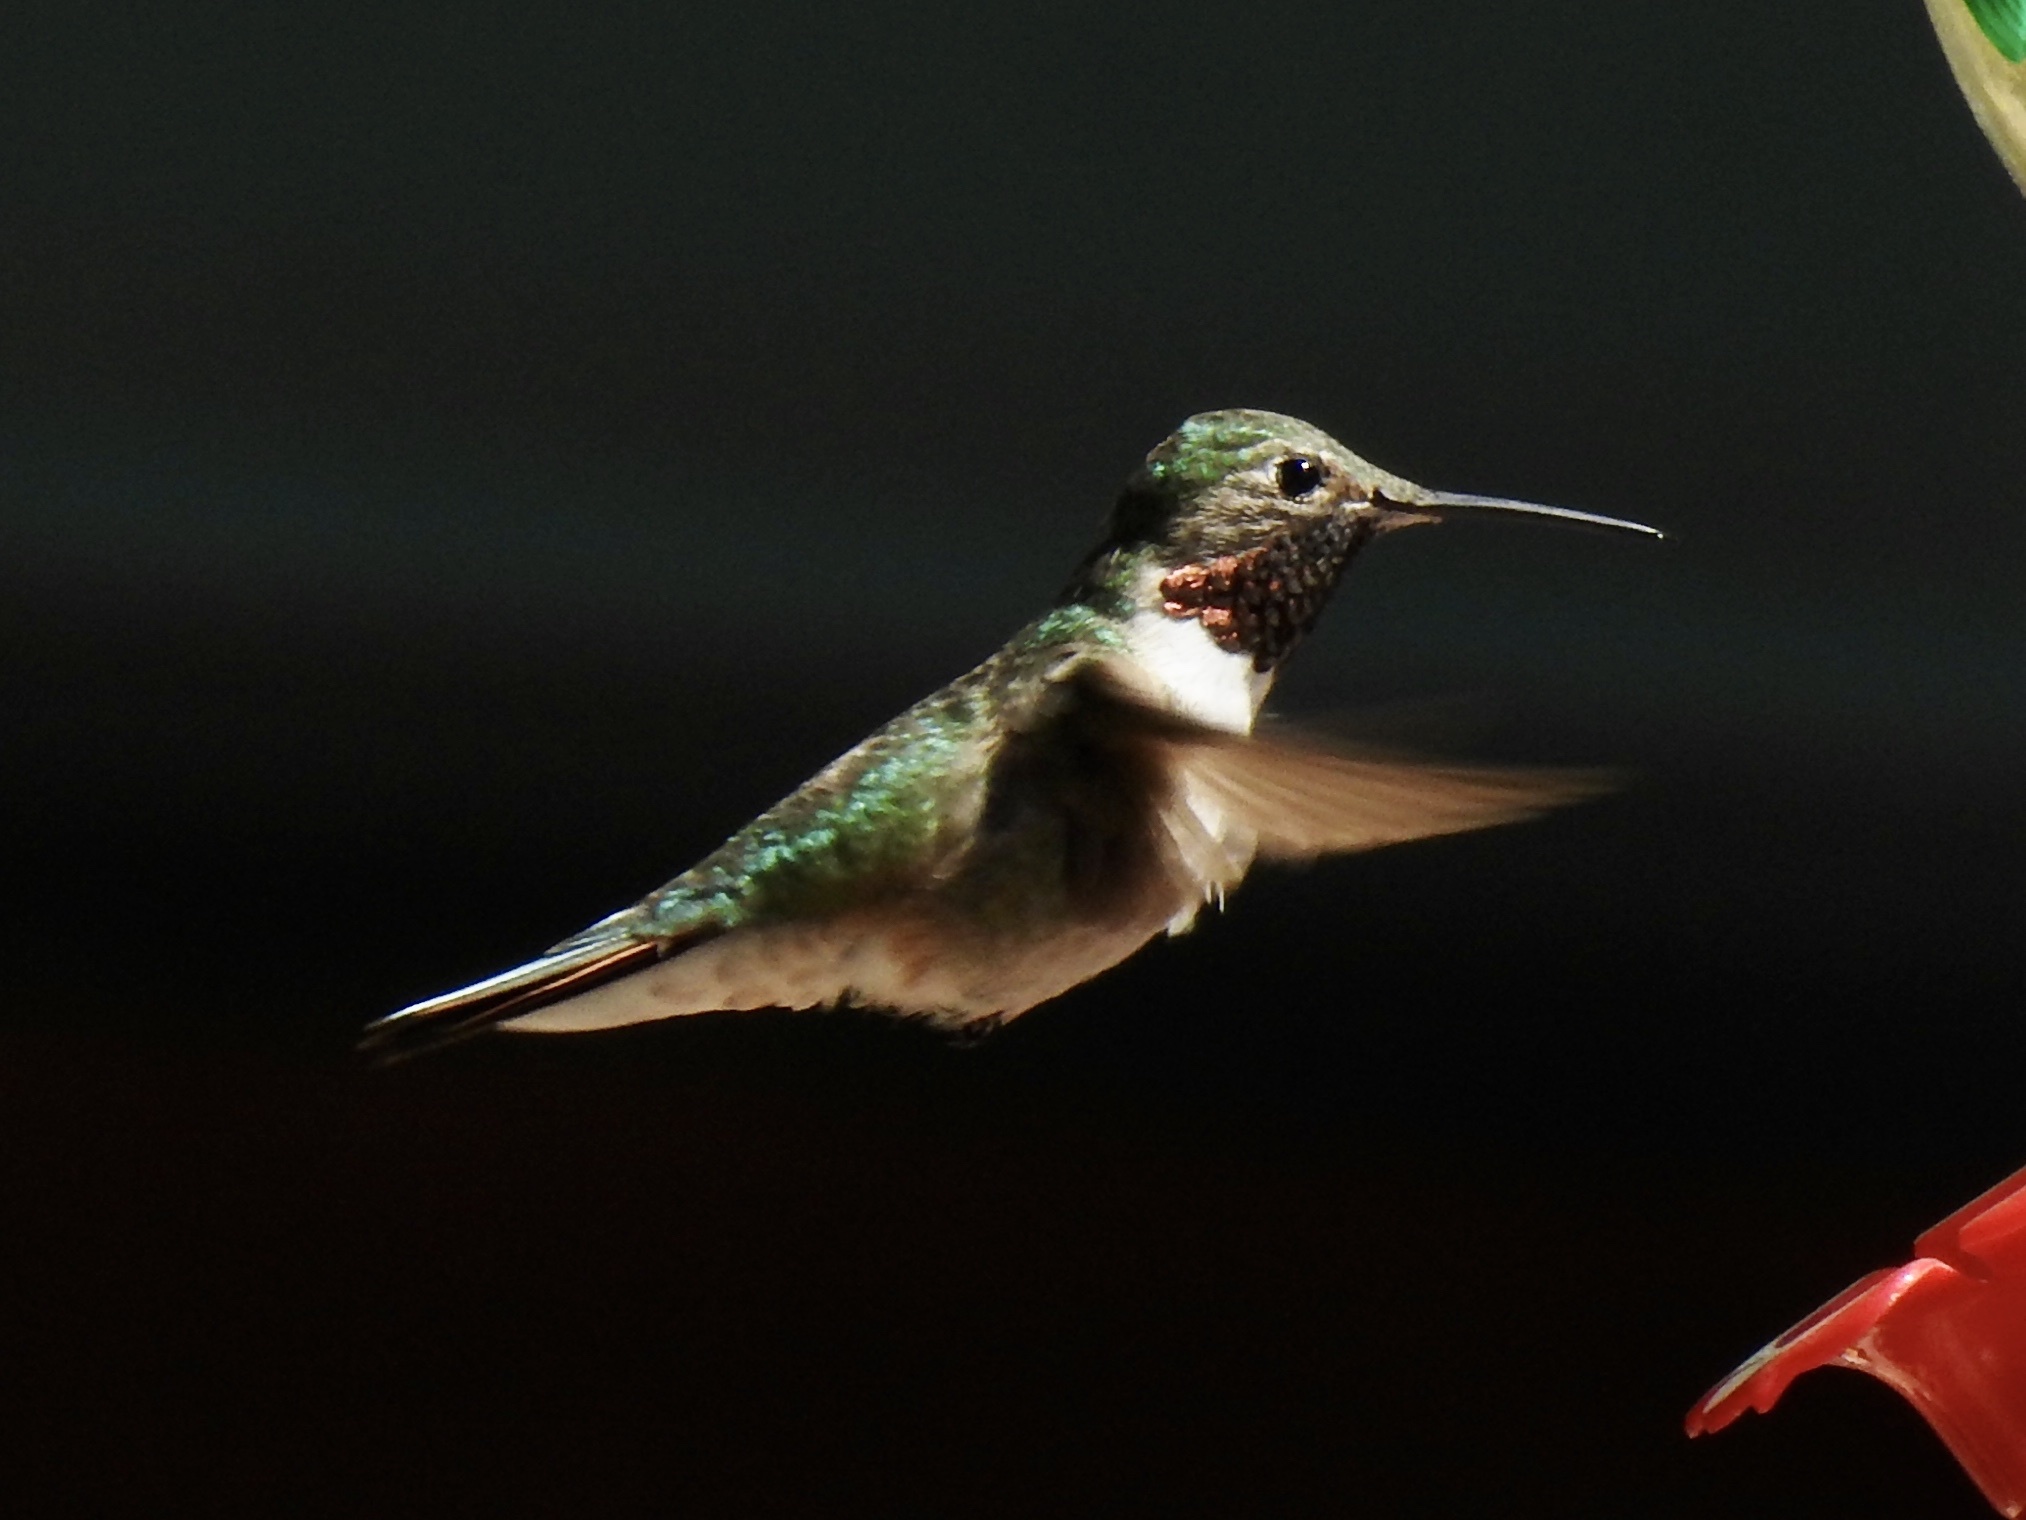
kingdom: Animalia
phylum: Chordata
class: Aves
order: Apodiformes
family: Trochilidae
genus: Selasphorus
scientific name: Selasphorus platycercus
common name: Broad-tailed hummingbird
